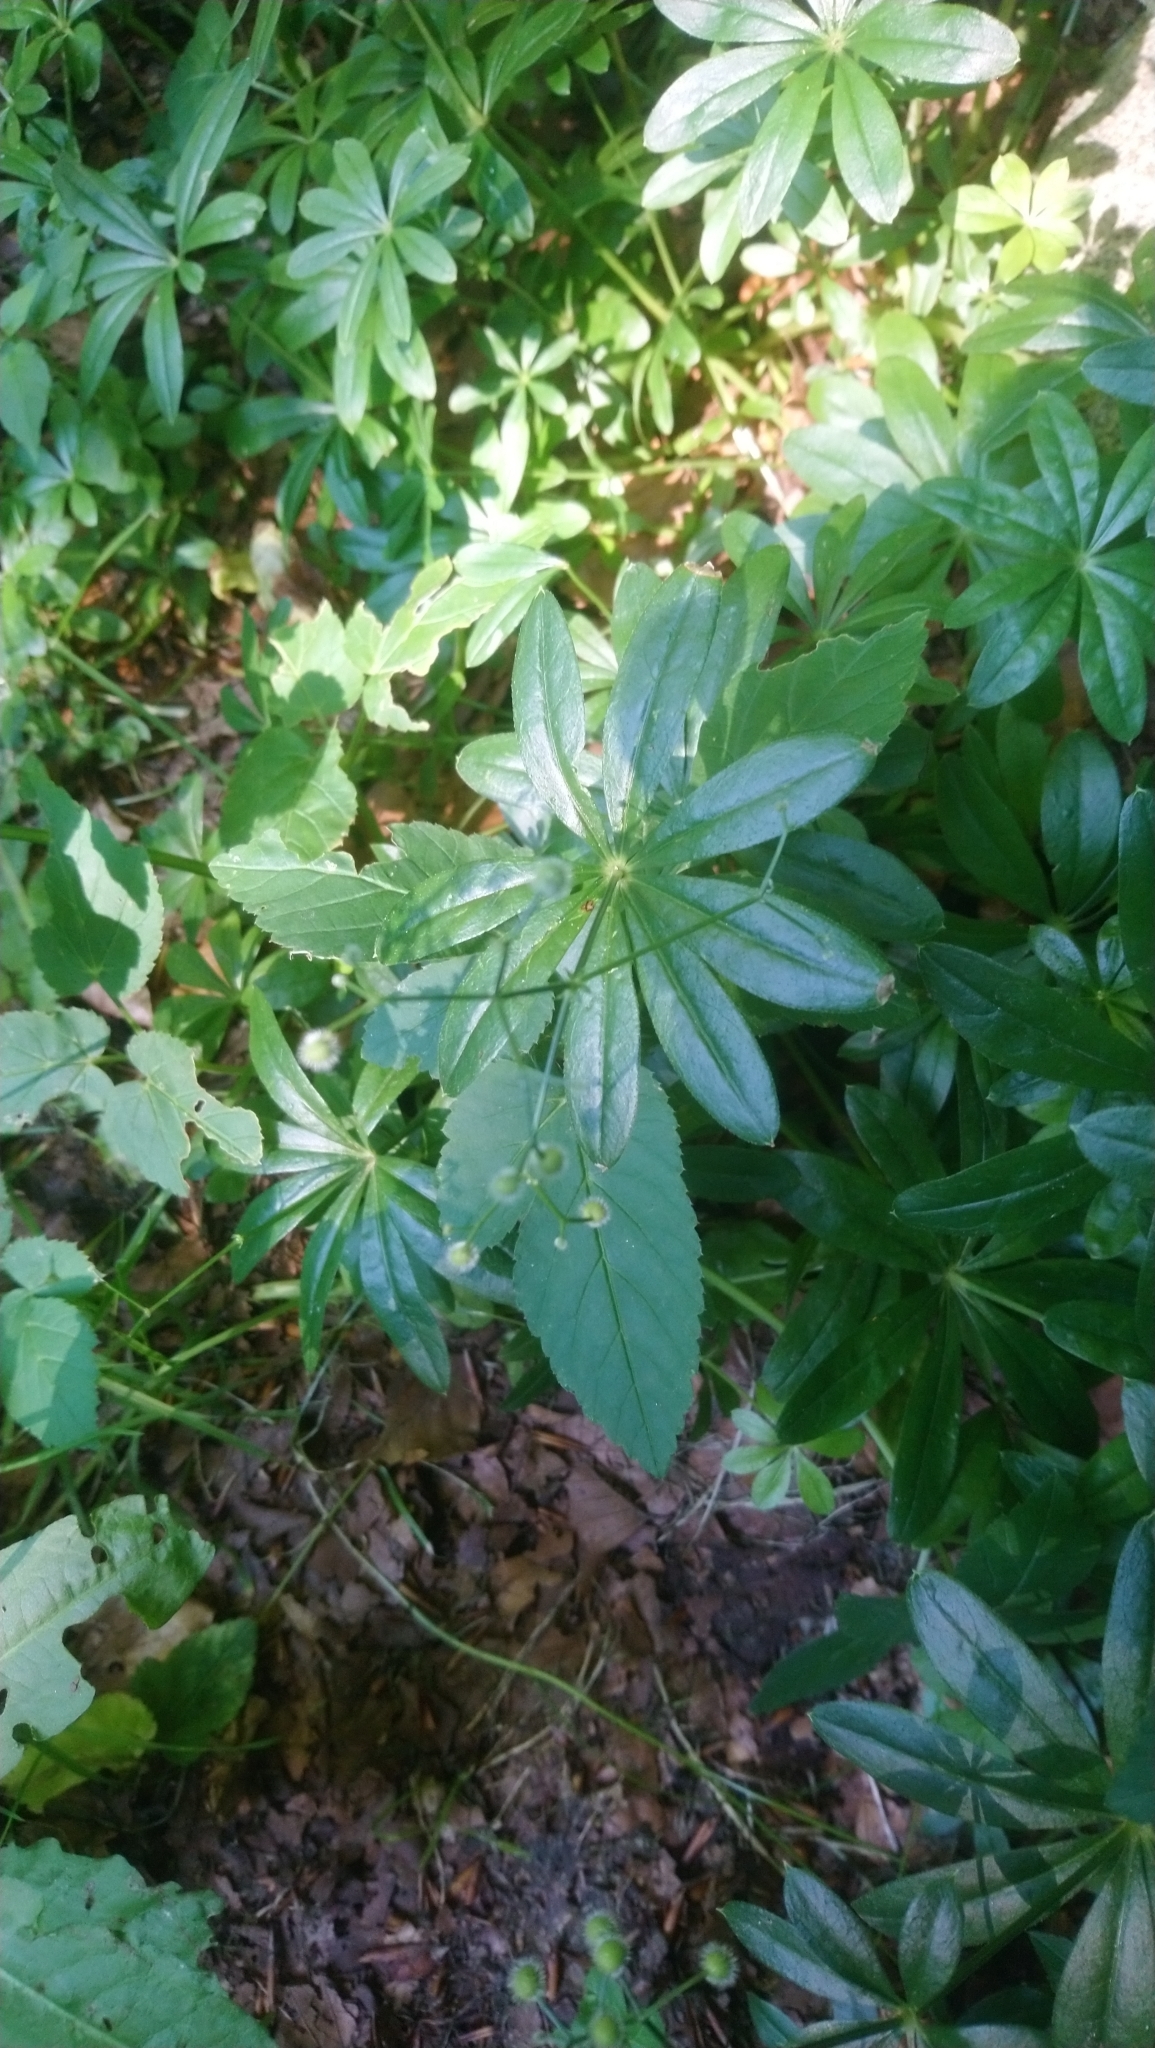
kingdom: Plantae
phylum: Tracheophyta
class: Magnoliopsida
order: Gentianales
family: Rubiaceae
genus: Galium
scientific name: Galium odoratum
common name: Sweet woodruff
